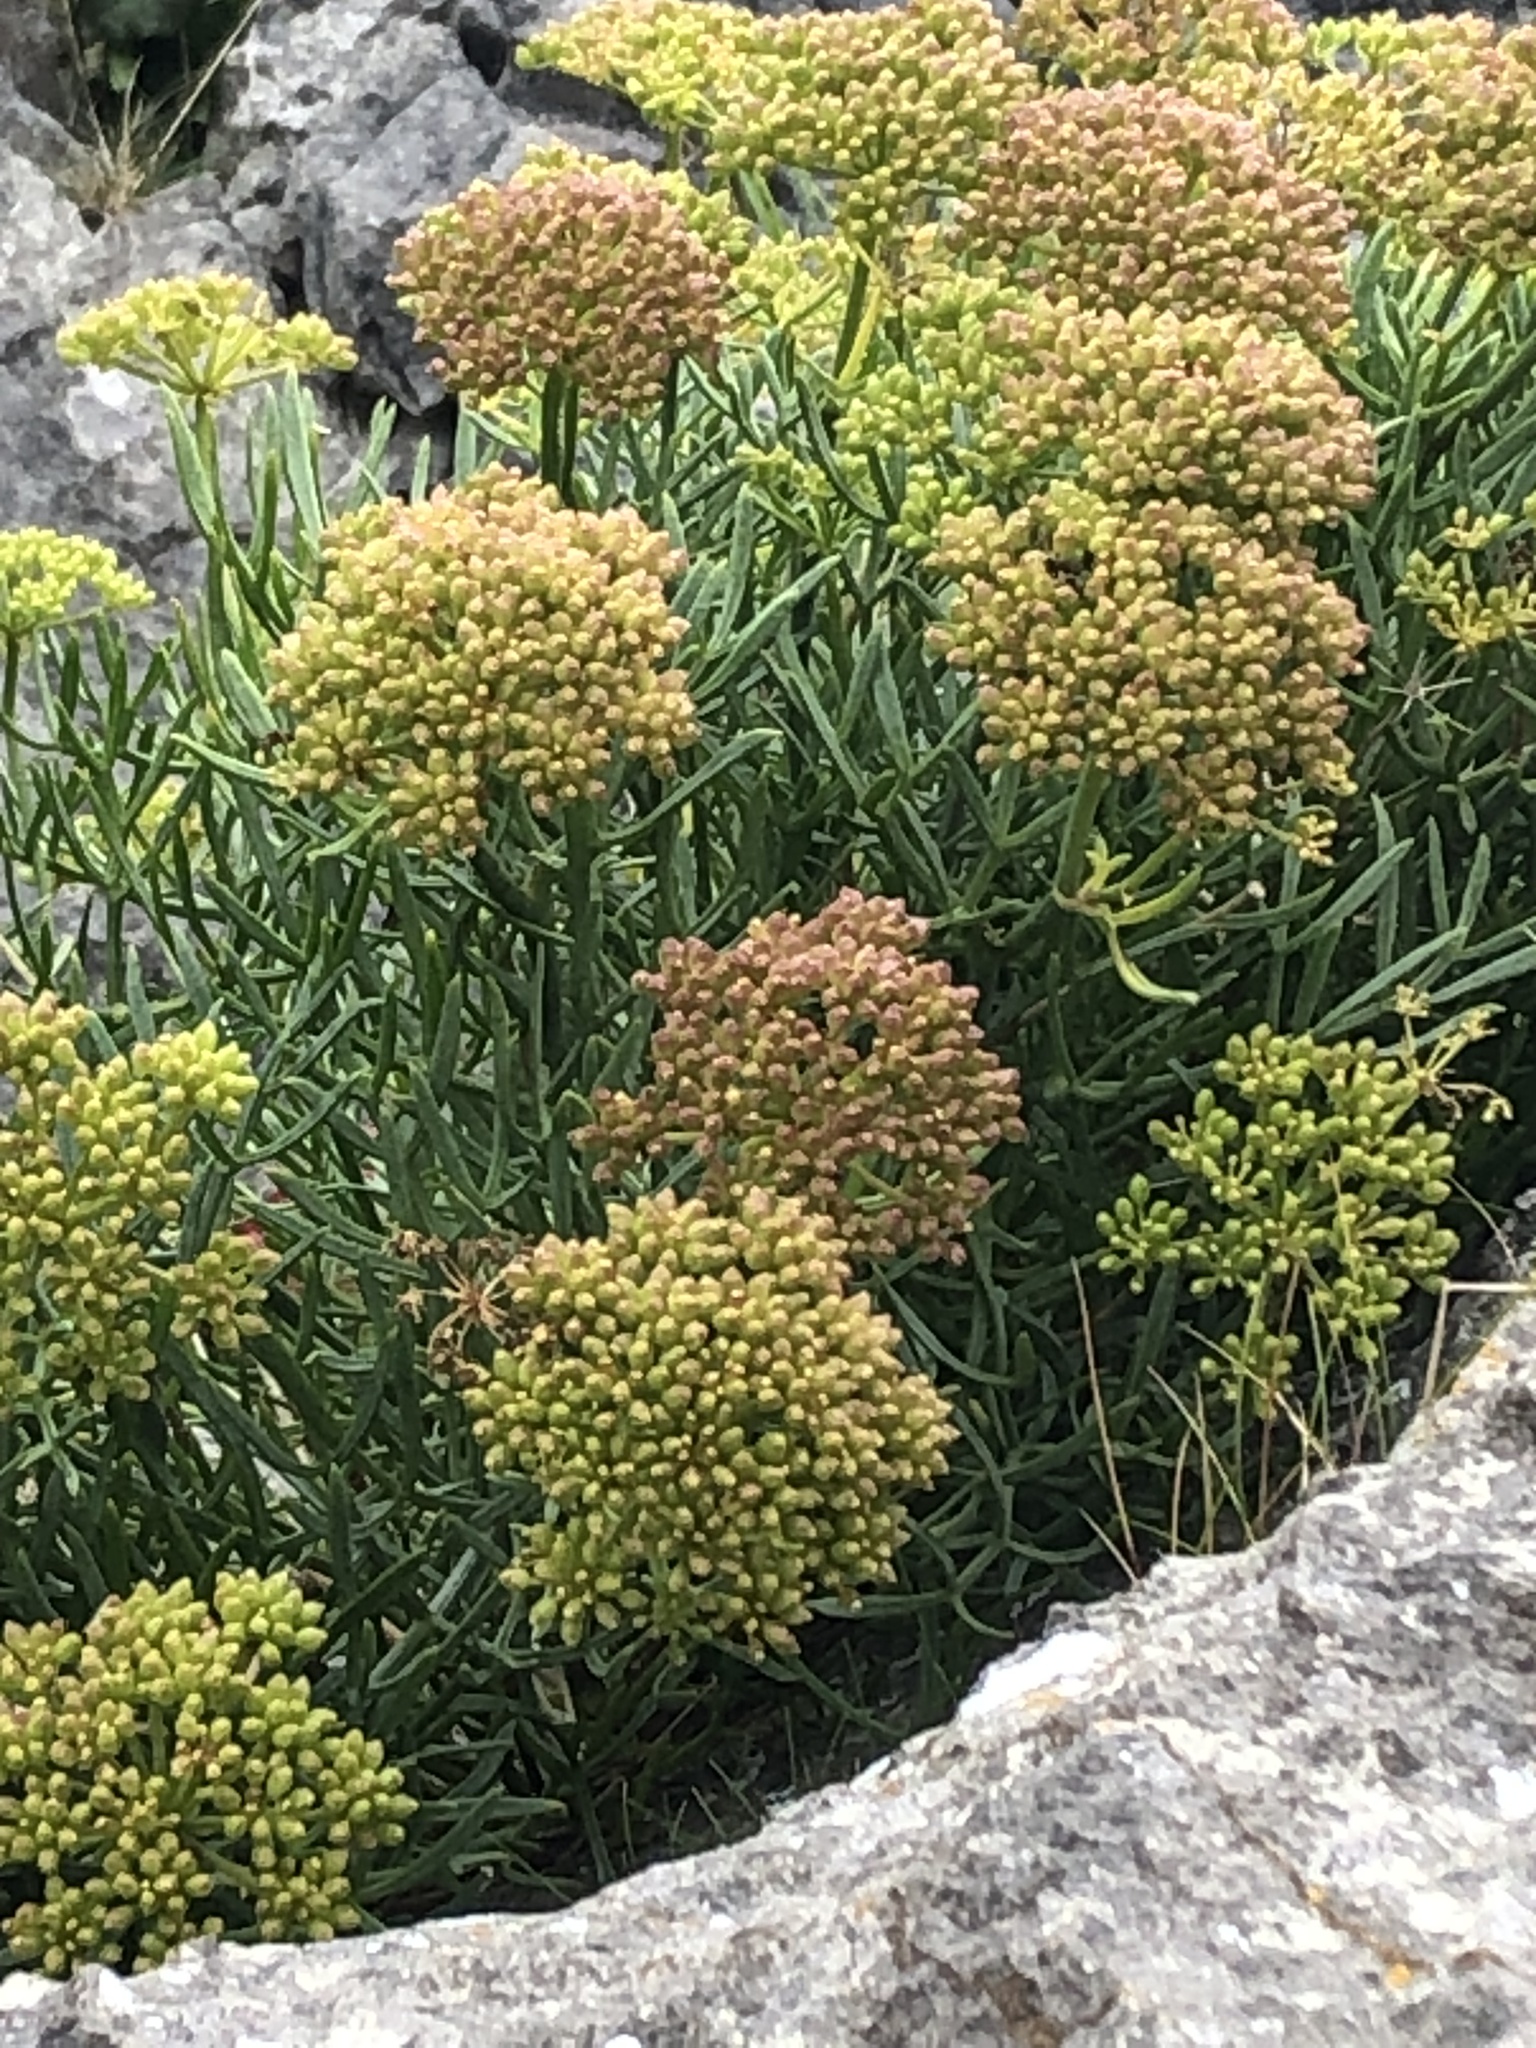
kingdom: Plantae
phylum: Tracheophyta
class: Magnoliopsida
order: Apiales
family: Apiaceae
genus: Crithmum
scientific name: Crithmum maritimum
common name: Rock samphire
